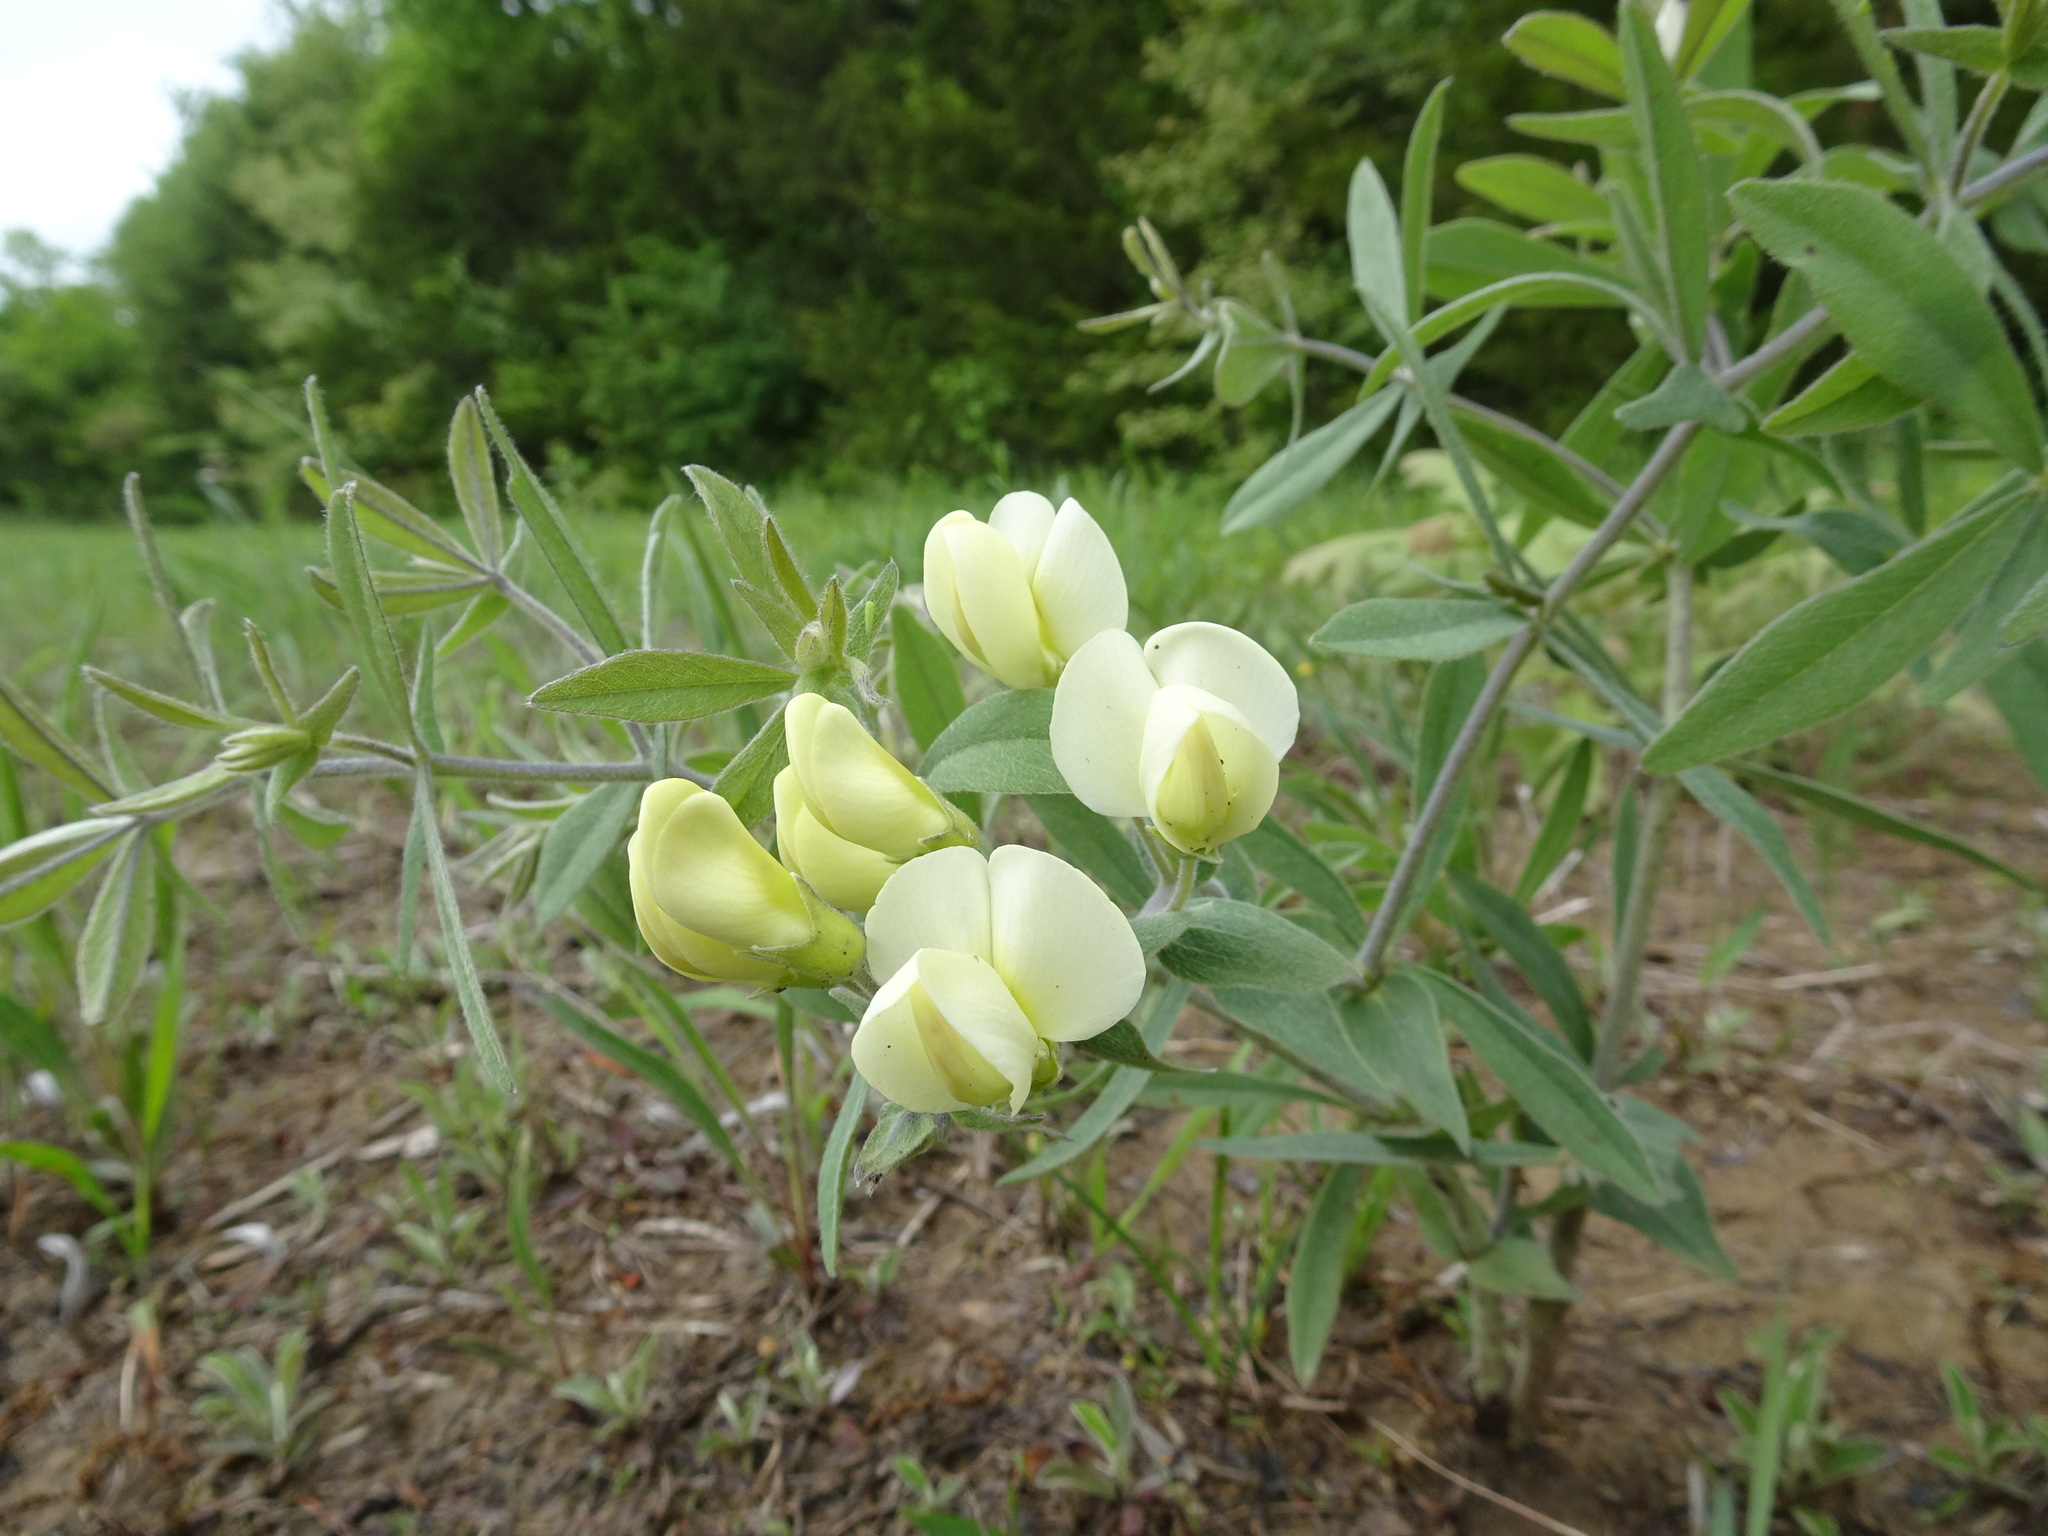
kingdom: Plantae
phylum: Tracheophyta
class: Magnoliopsida
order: Fabales
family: Fabaceae
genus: Baptisia
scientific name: Baptisia bracteata
